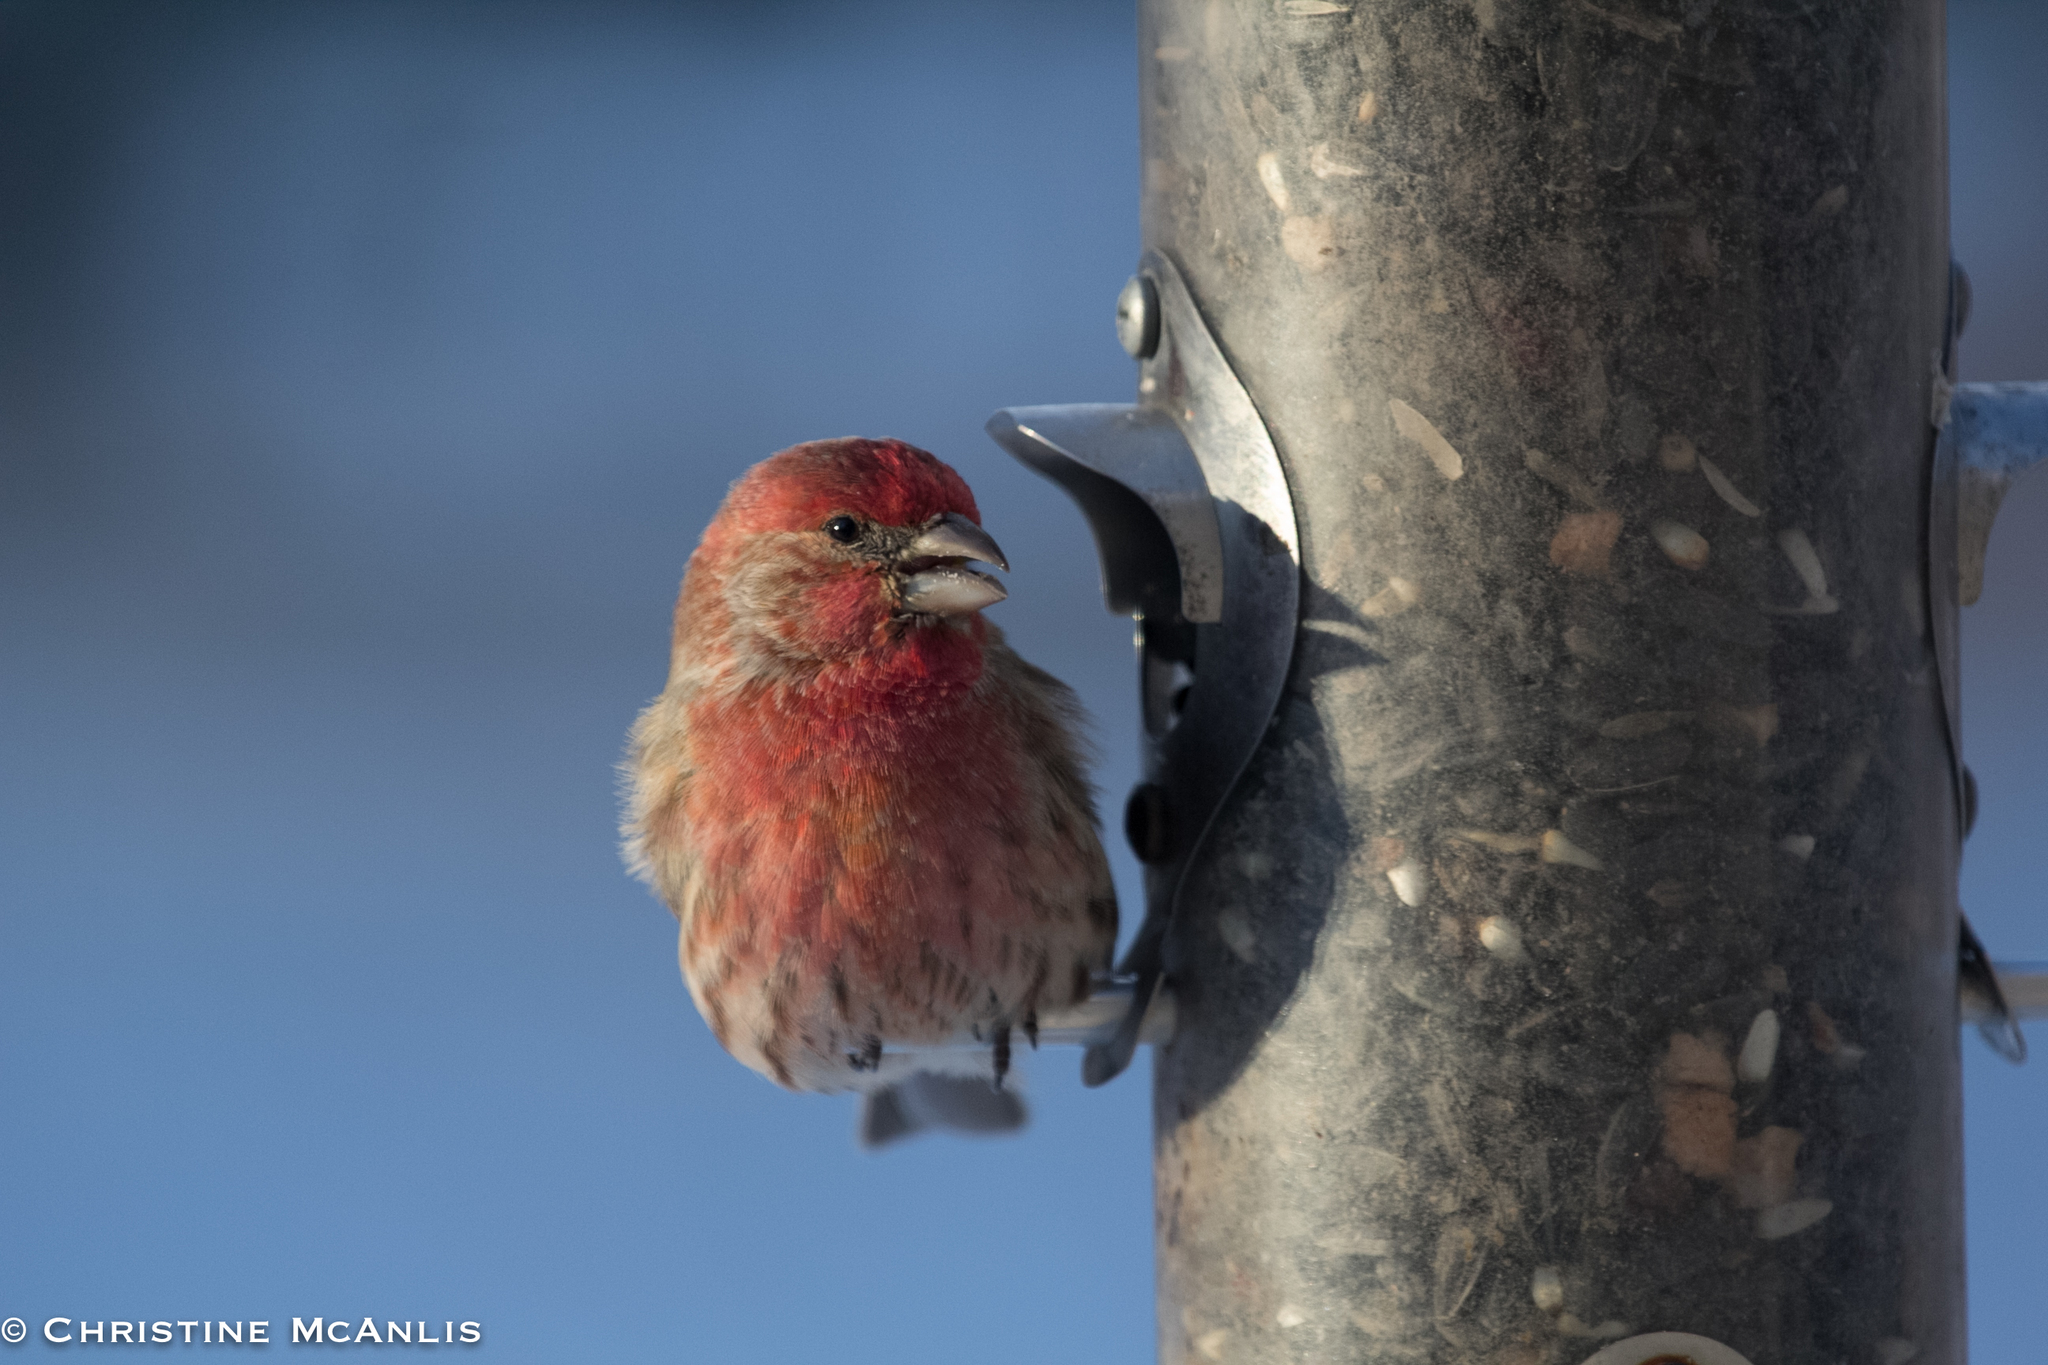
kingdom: Animalia
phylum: Chordata
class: Aves
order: Passeriformes
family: Fringillidae
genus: Haemorhous
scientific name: Haemorhous mexicanus
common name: House finch
